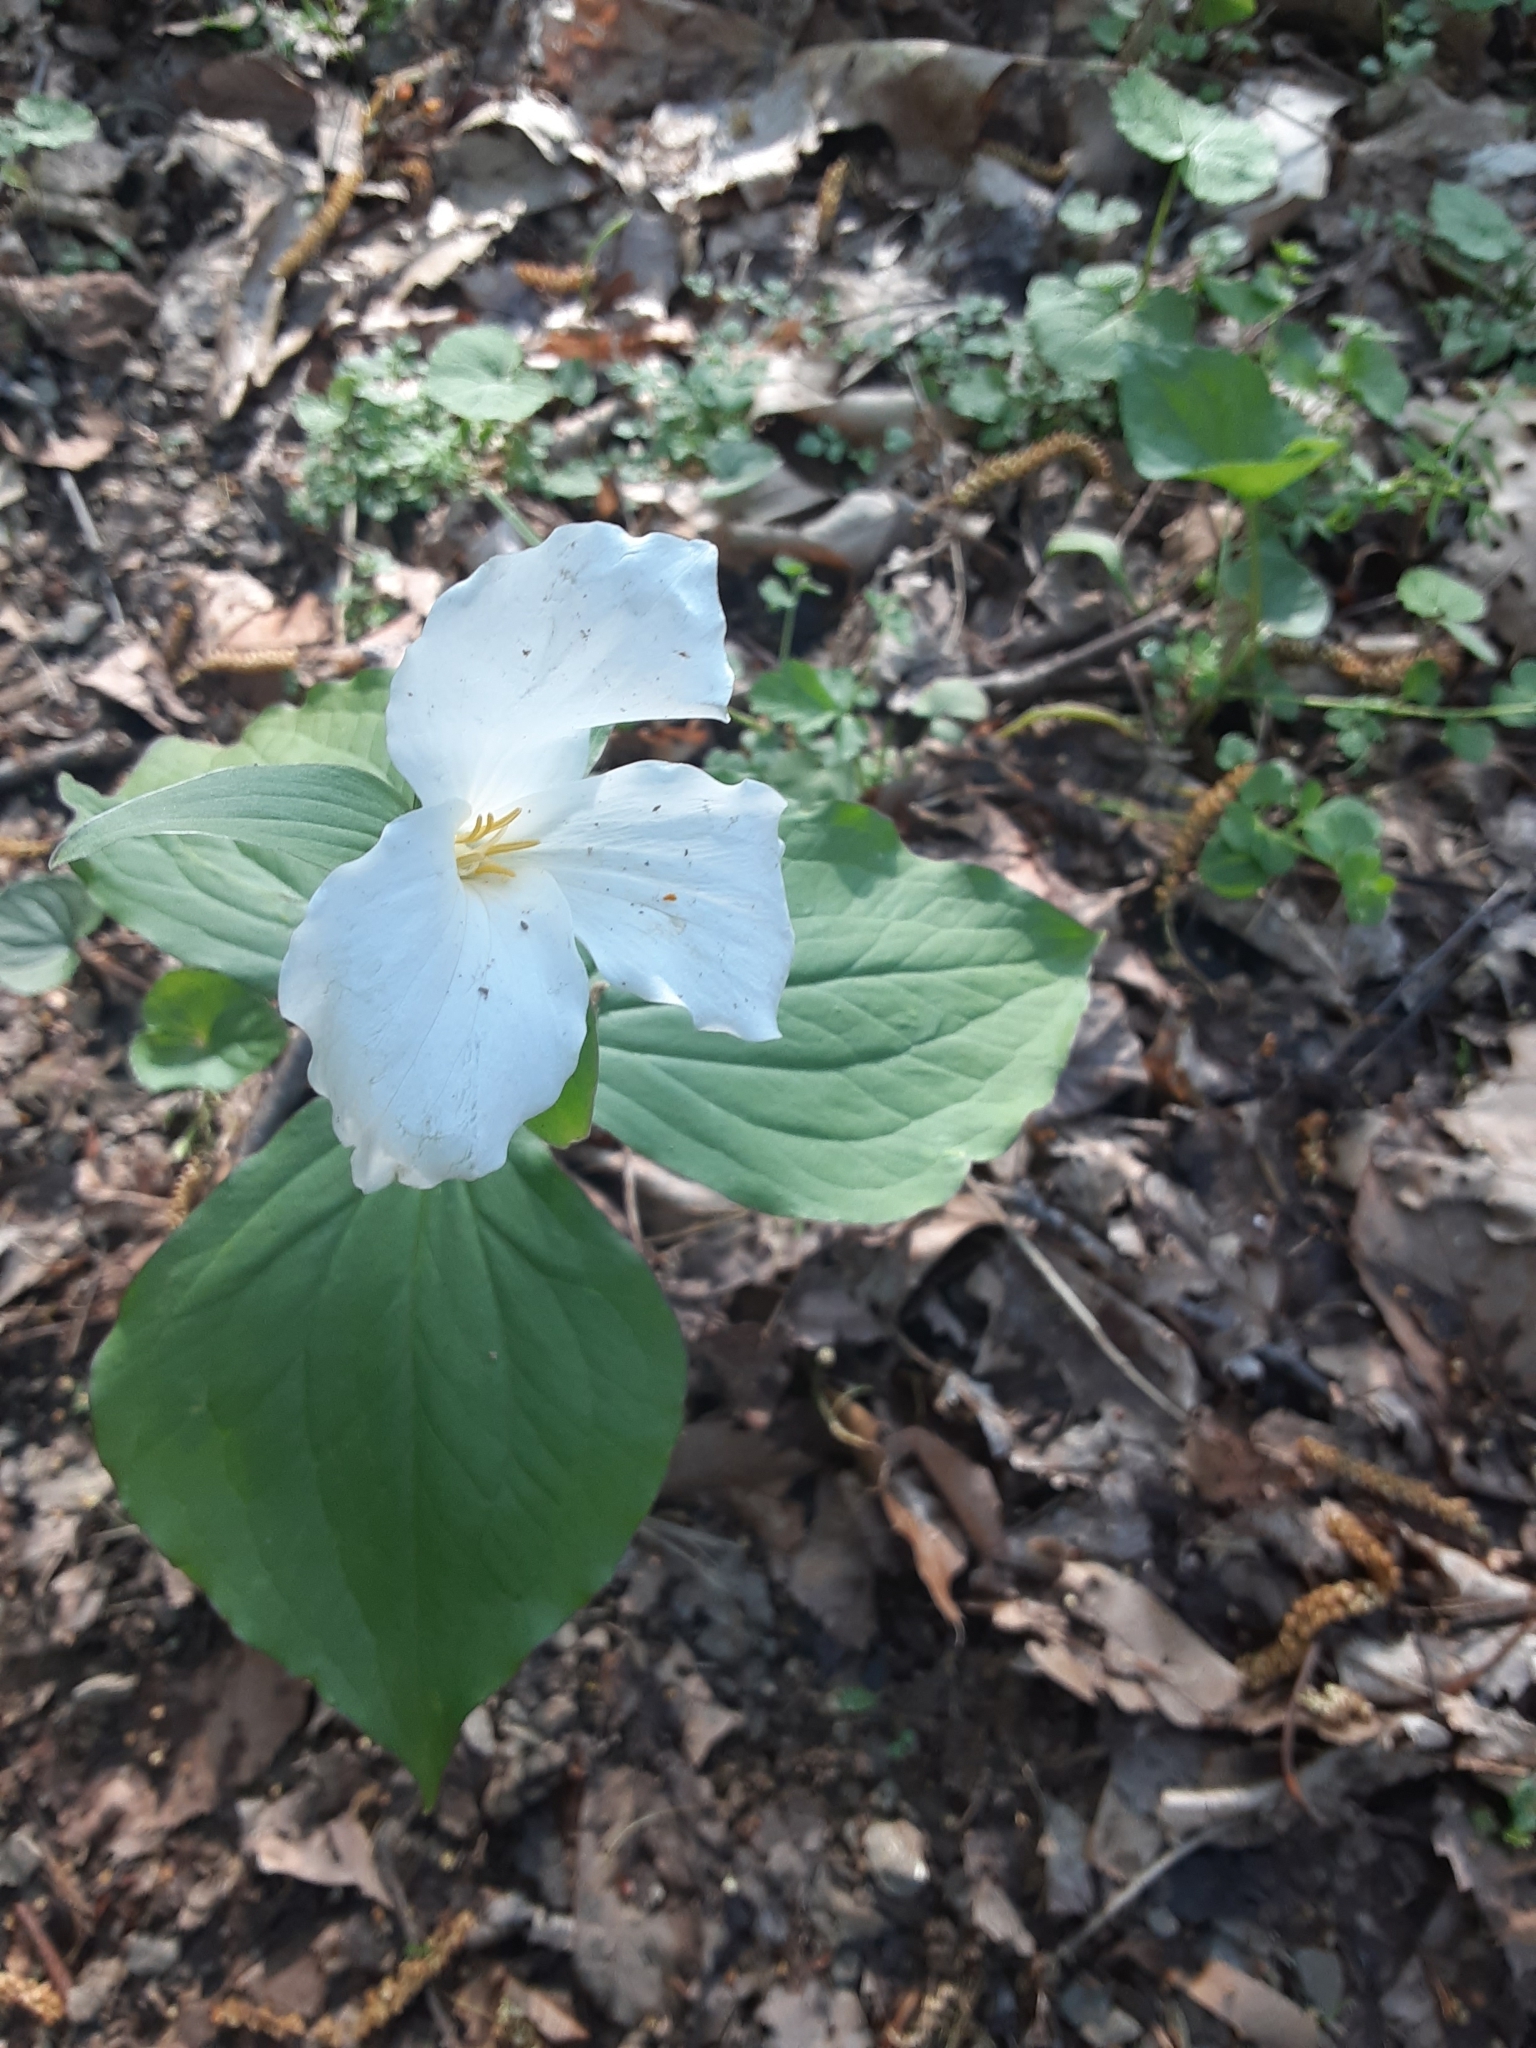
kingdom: Plantae
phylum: Tracheophyta
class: Liliopsida
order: Liliales
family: Melanthiaceae
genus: Trillium
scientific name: Trillium grandiflorum
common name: Great white trillium
